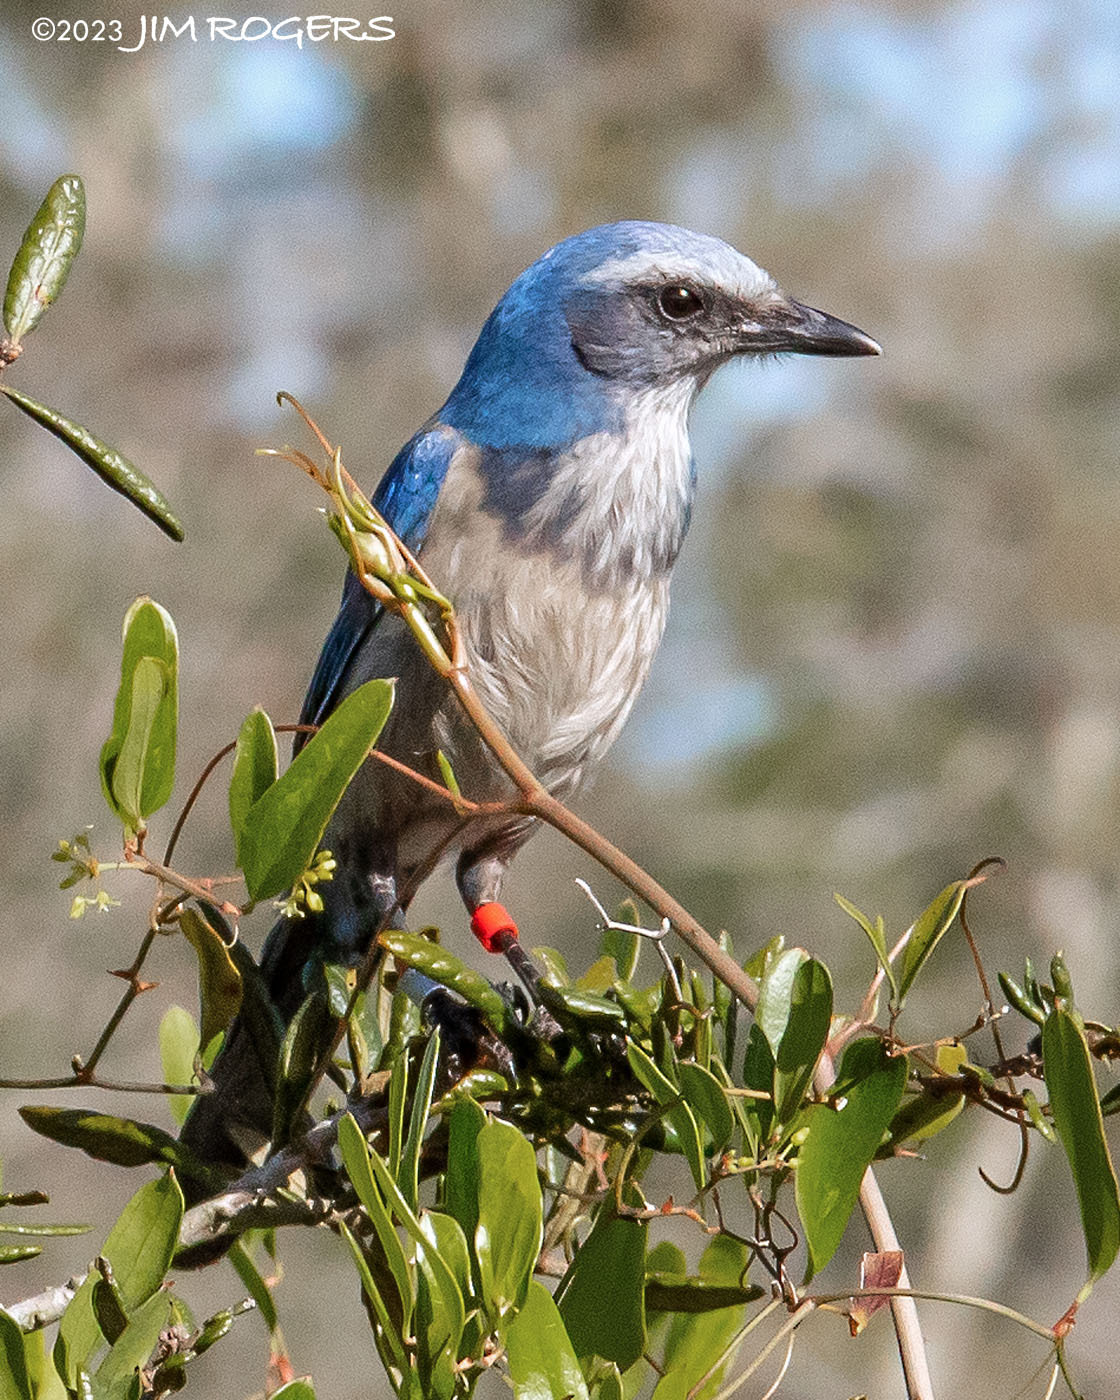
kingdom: Animalia
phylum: Chordata
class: Aves
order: Passeriformes
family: Corvidae
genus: Aphelocoma
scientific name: Aphelocoma coerulescens
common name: Florida scrub jay
